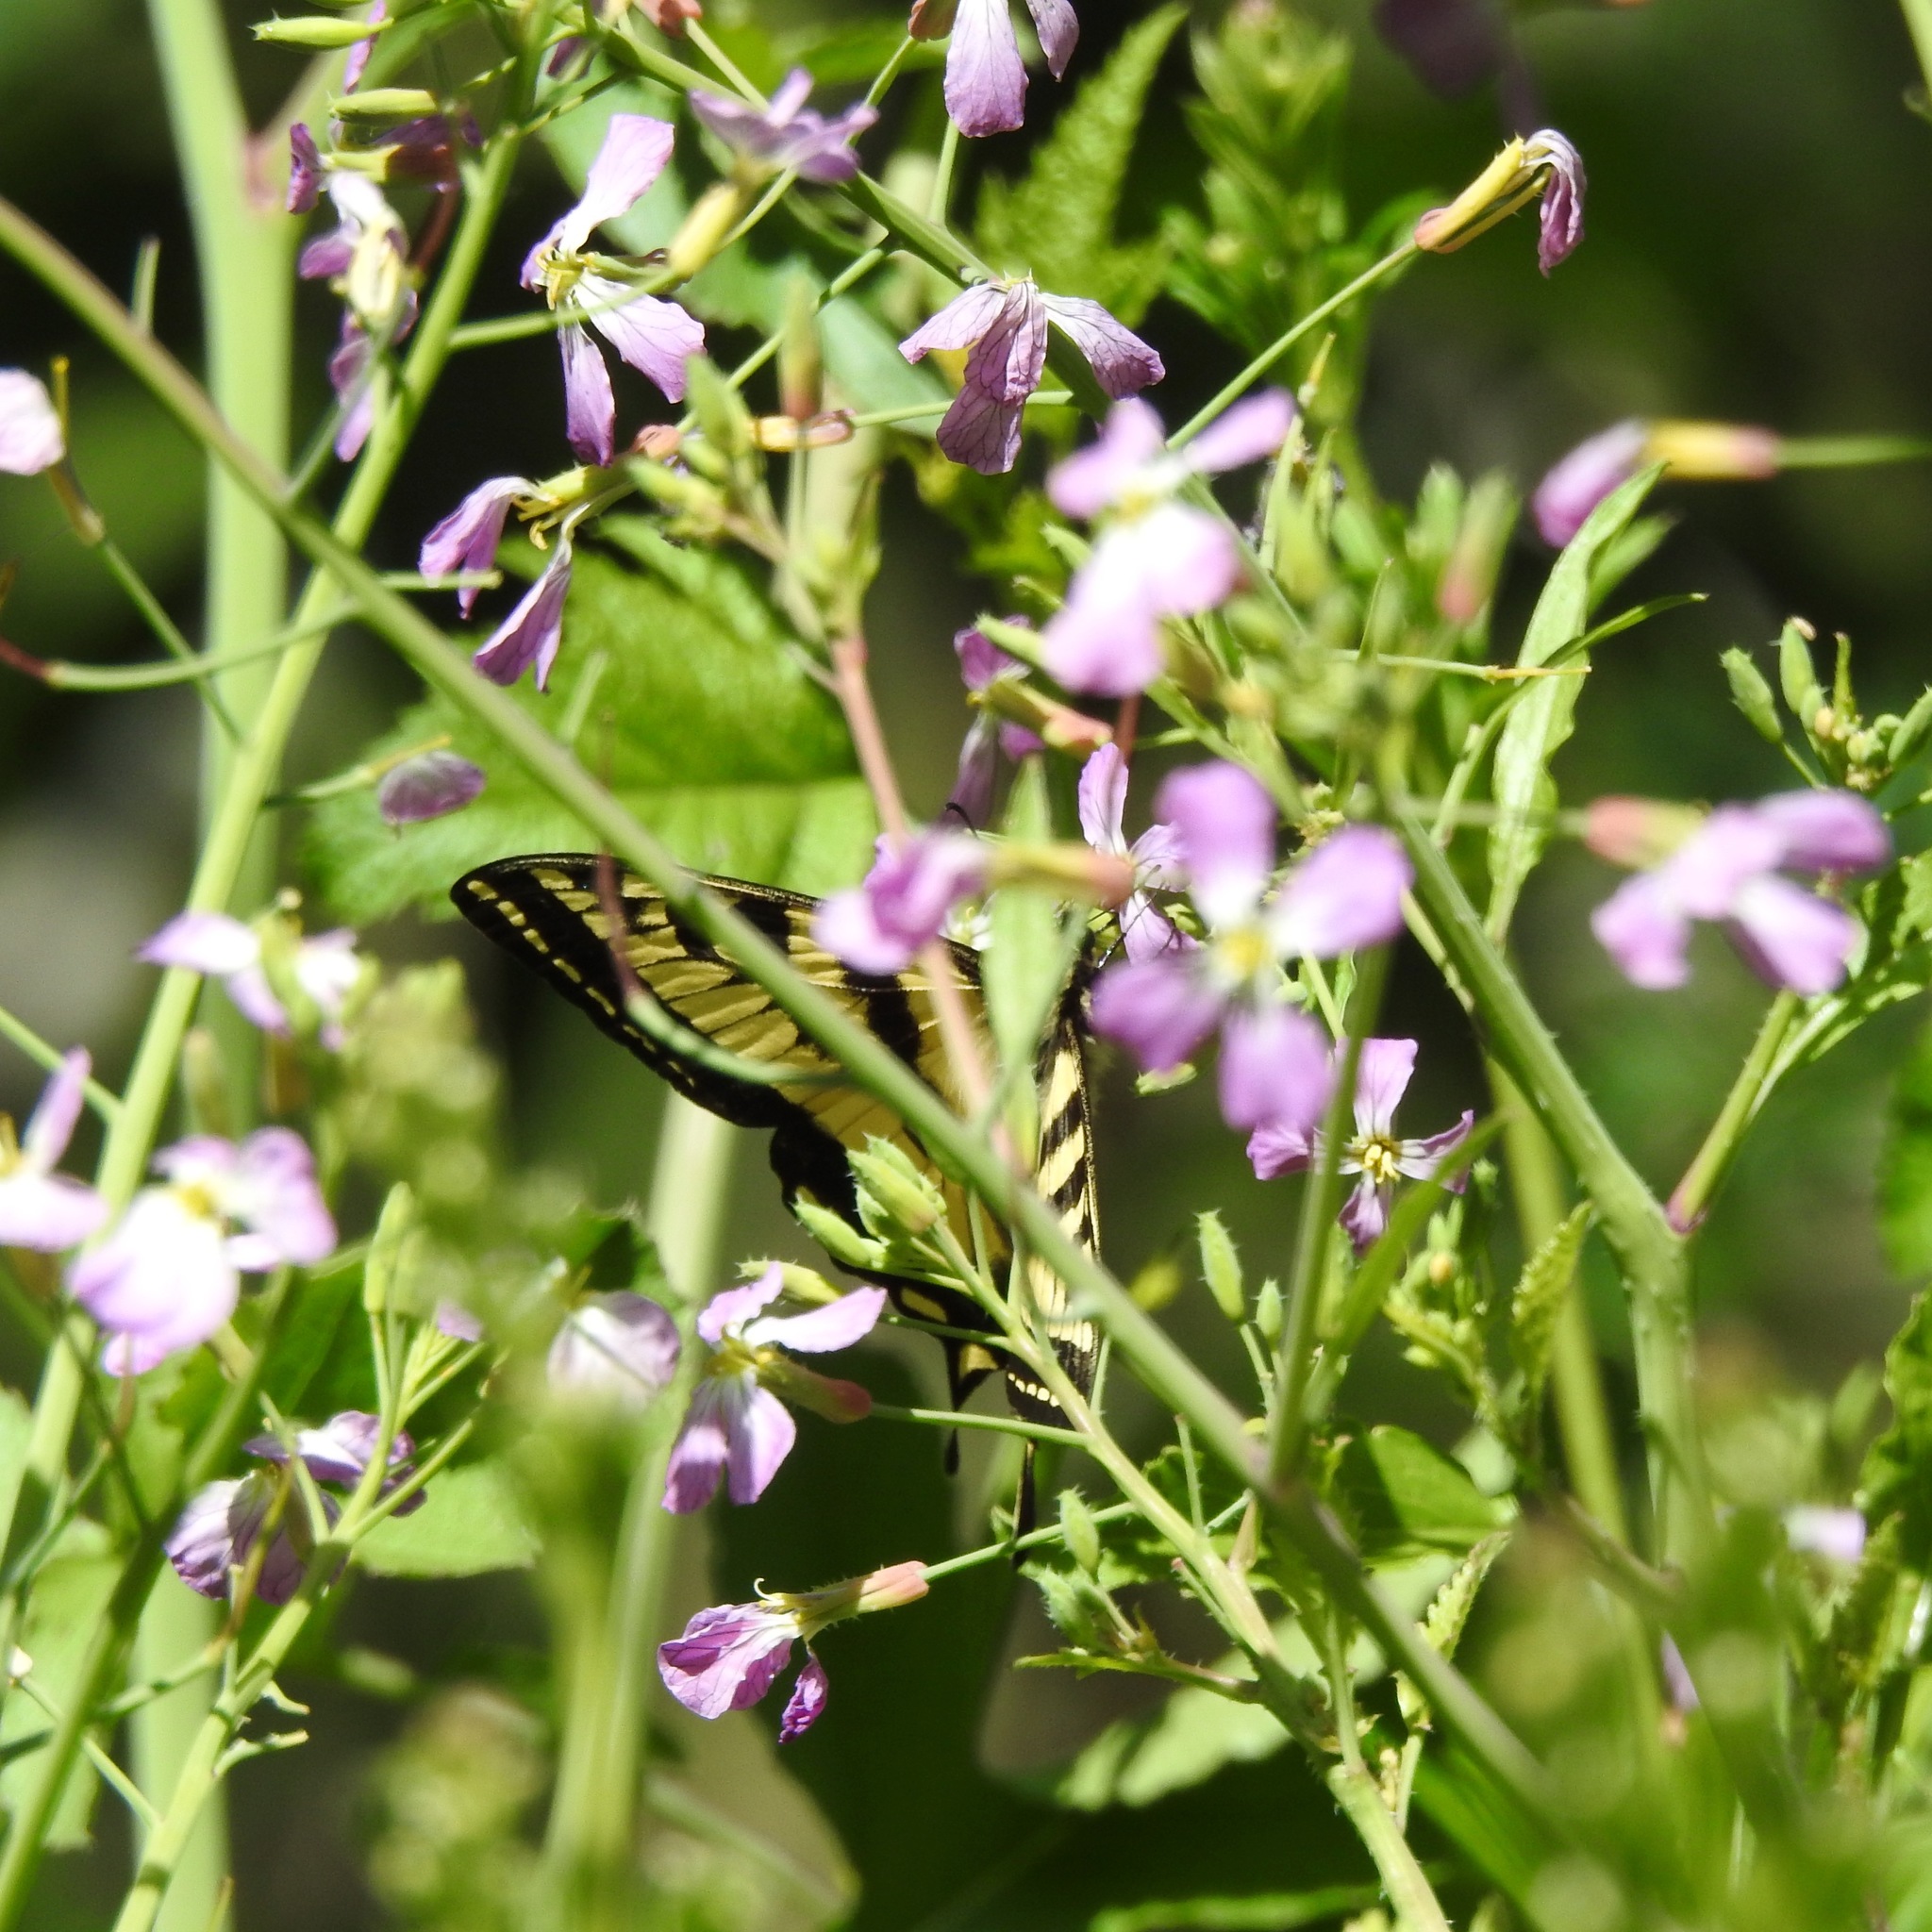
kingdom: Animalia
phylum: Arthropoda
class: Insecta
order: Lepidoptera
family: Papilionidae
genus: Papilio
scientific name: Papilio rutulus
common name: Western tiger swallowtail
